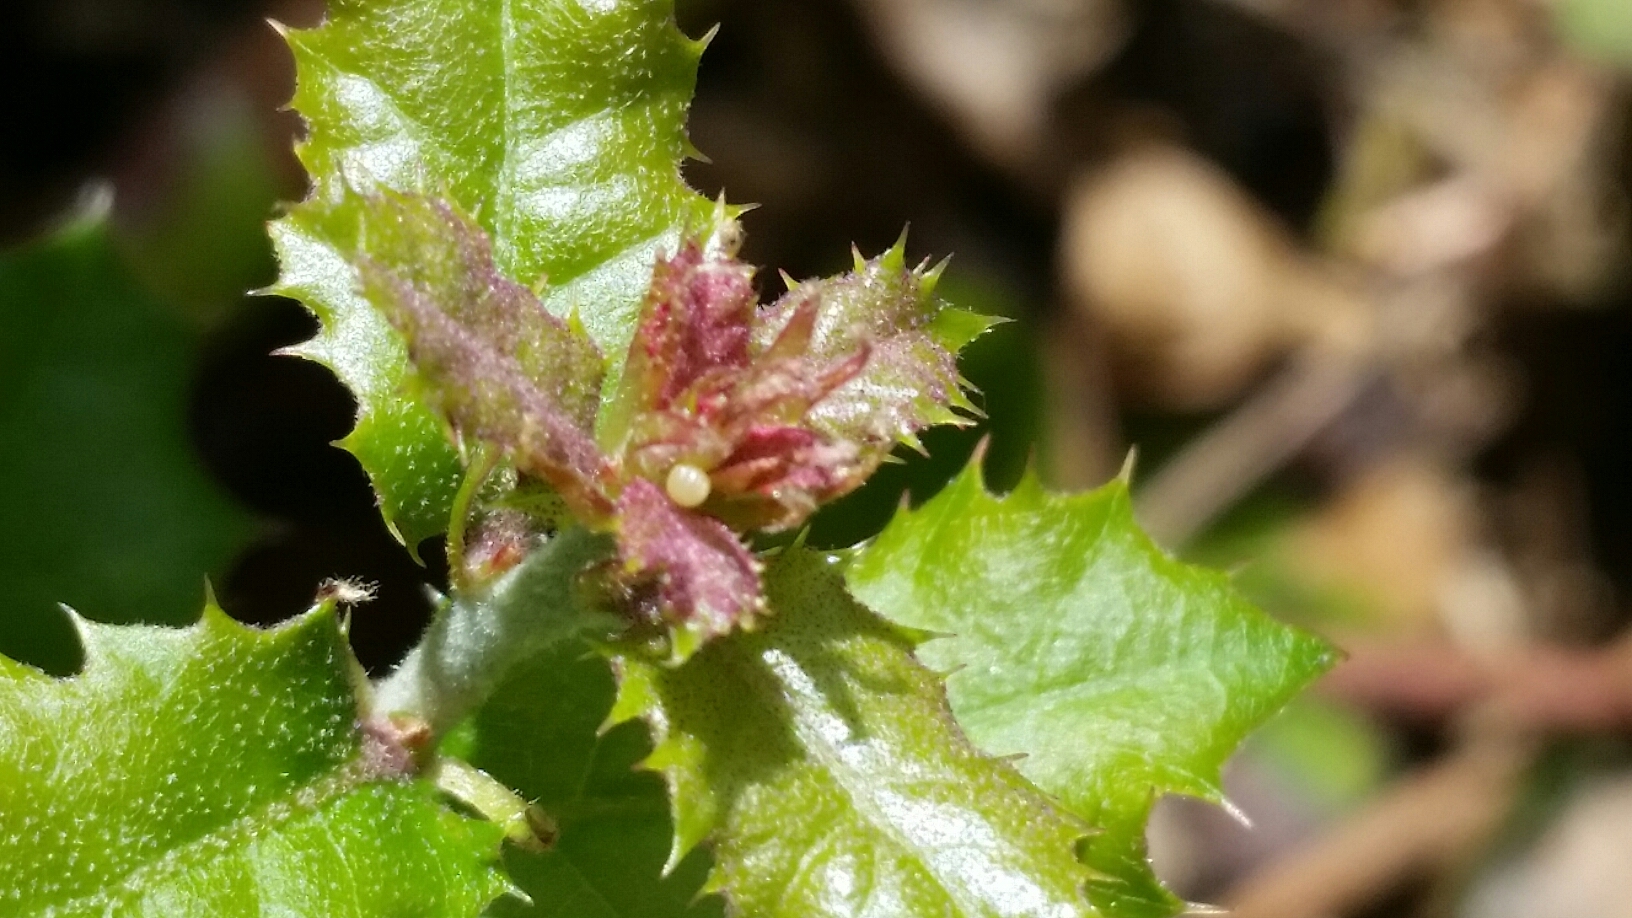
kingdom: Animalia
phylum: Arthropoda
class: Insecta
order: Lepidoptera
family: Hesperiidae
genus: Erynnis
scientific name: Erynnis tristis
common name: Mournful duskywing
